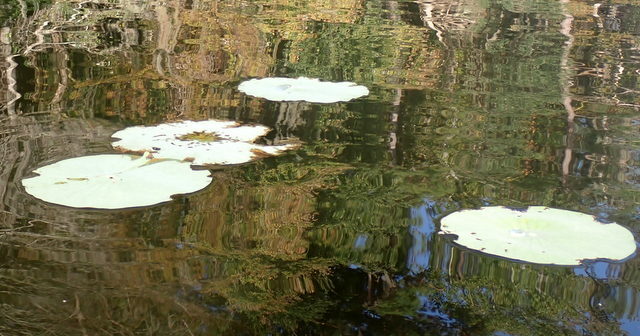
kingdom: Plantae
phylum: Tracheophyta
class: Magnoliopsida
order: Proteales
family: Nelumbonaceae
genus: Nelumbo
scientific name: Nelumbo lutea
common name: American lotus
